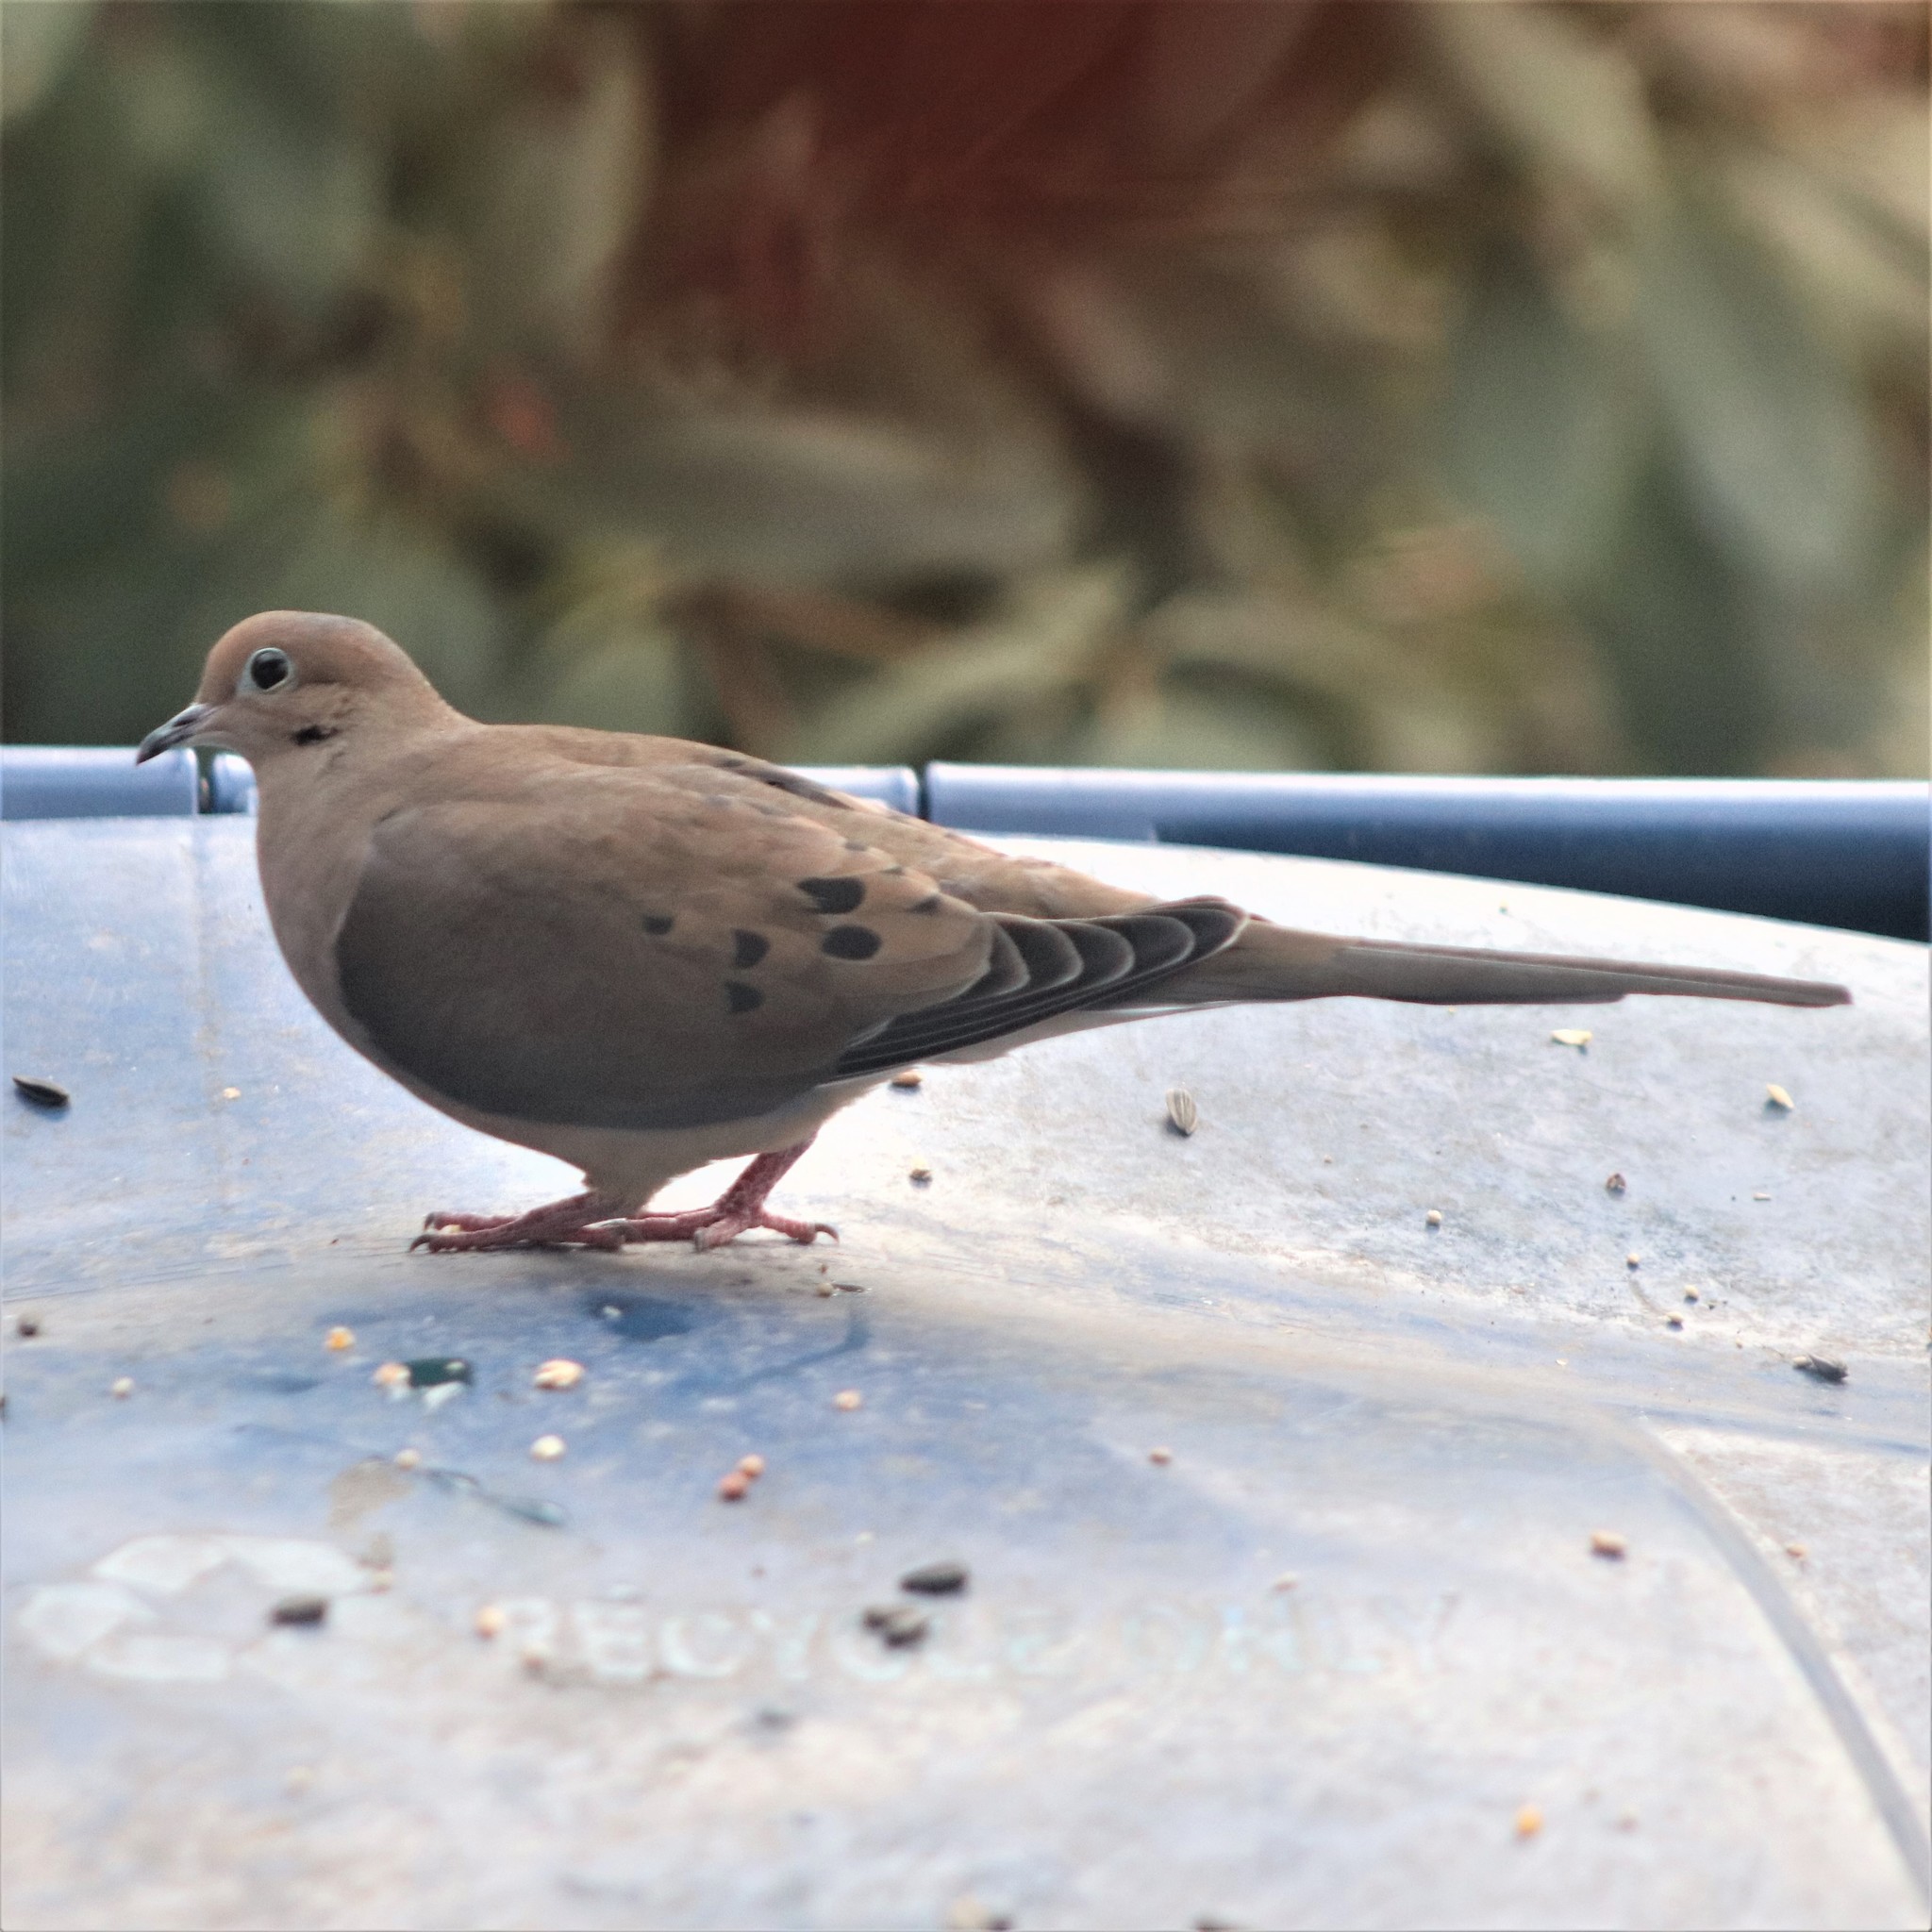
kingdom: Animalia
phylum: Chordata
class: Aves
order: Columbiformes
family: Columbidae
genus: Zenaida
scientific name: Zenaida macroura
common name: Mourning dove
